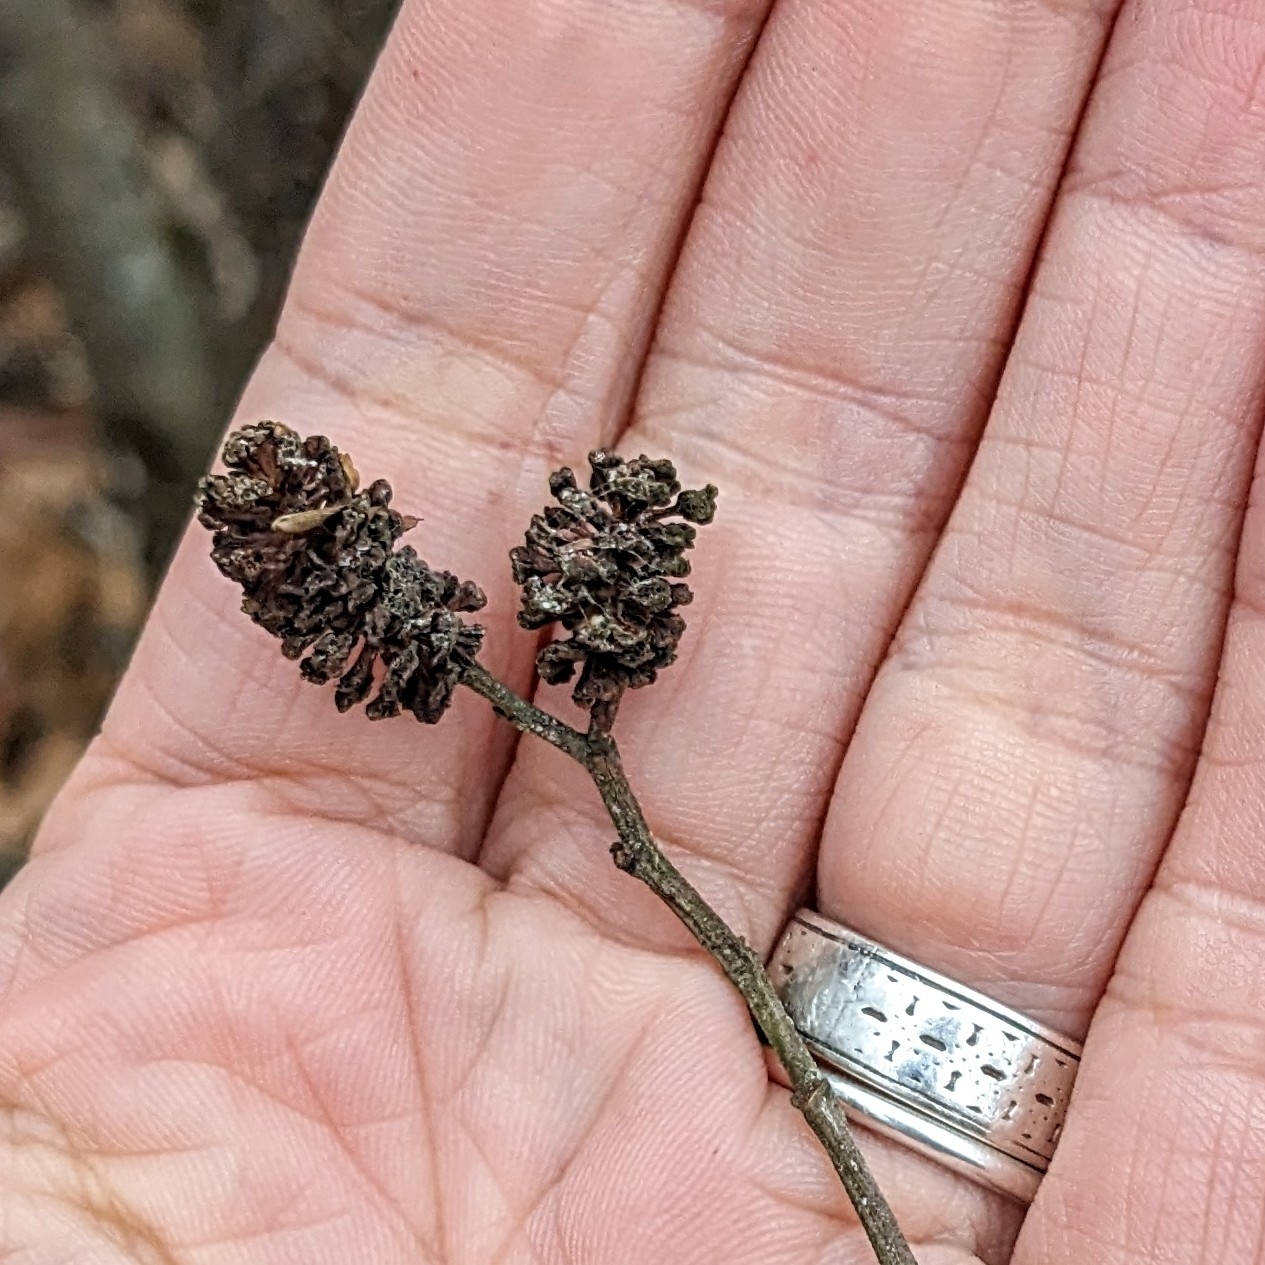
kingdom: Plantae
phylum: Tracheophyta
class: Magnoliopsida
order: Fagales
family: Betulaceae
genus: Alnus
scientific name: Alnus serrulata
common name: Hazel alder
